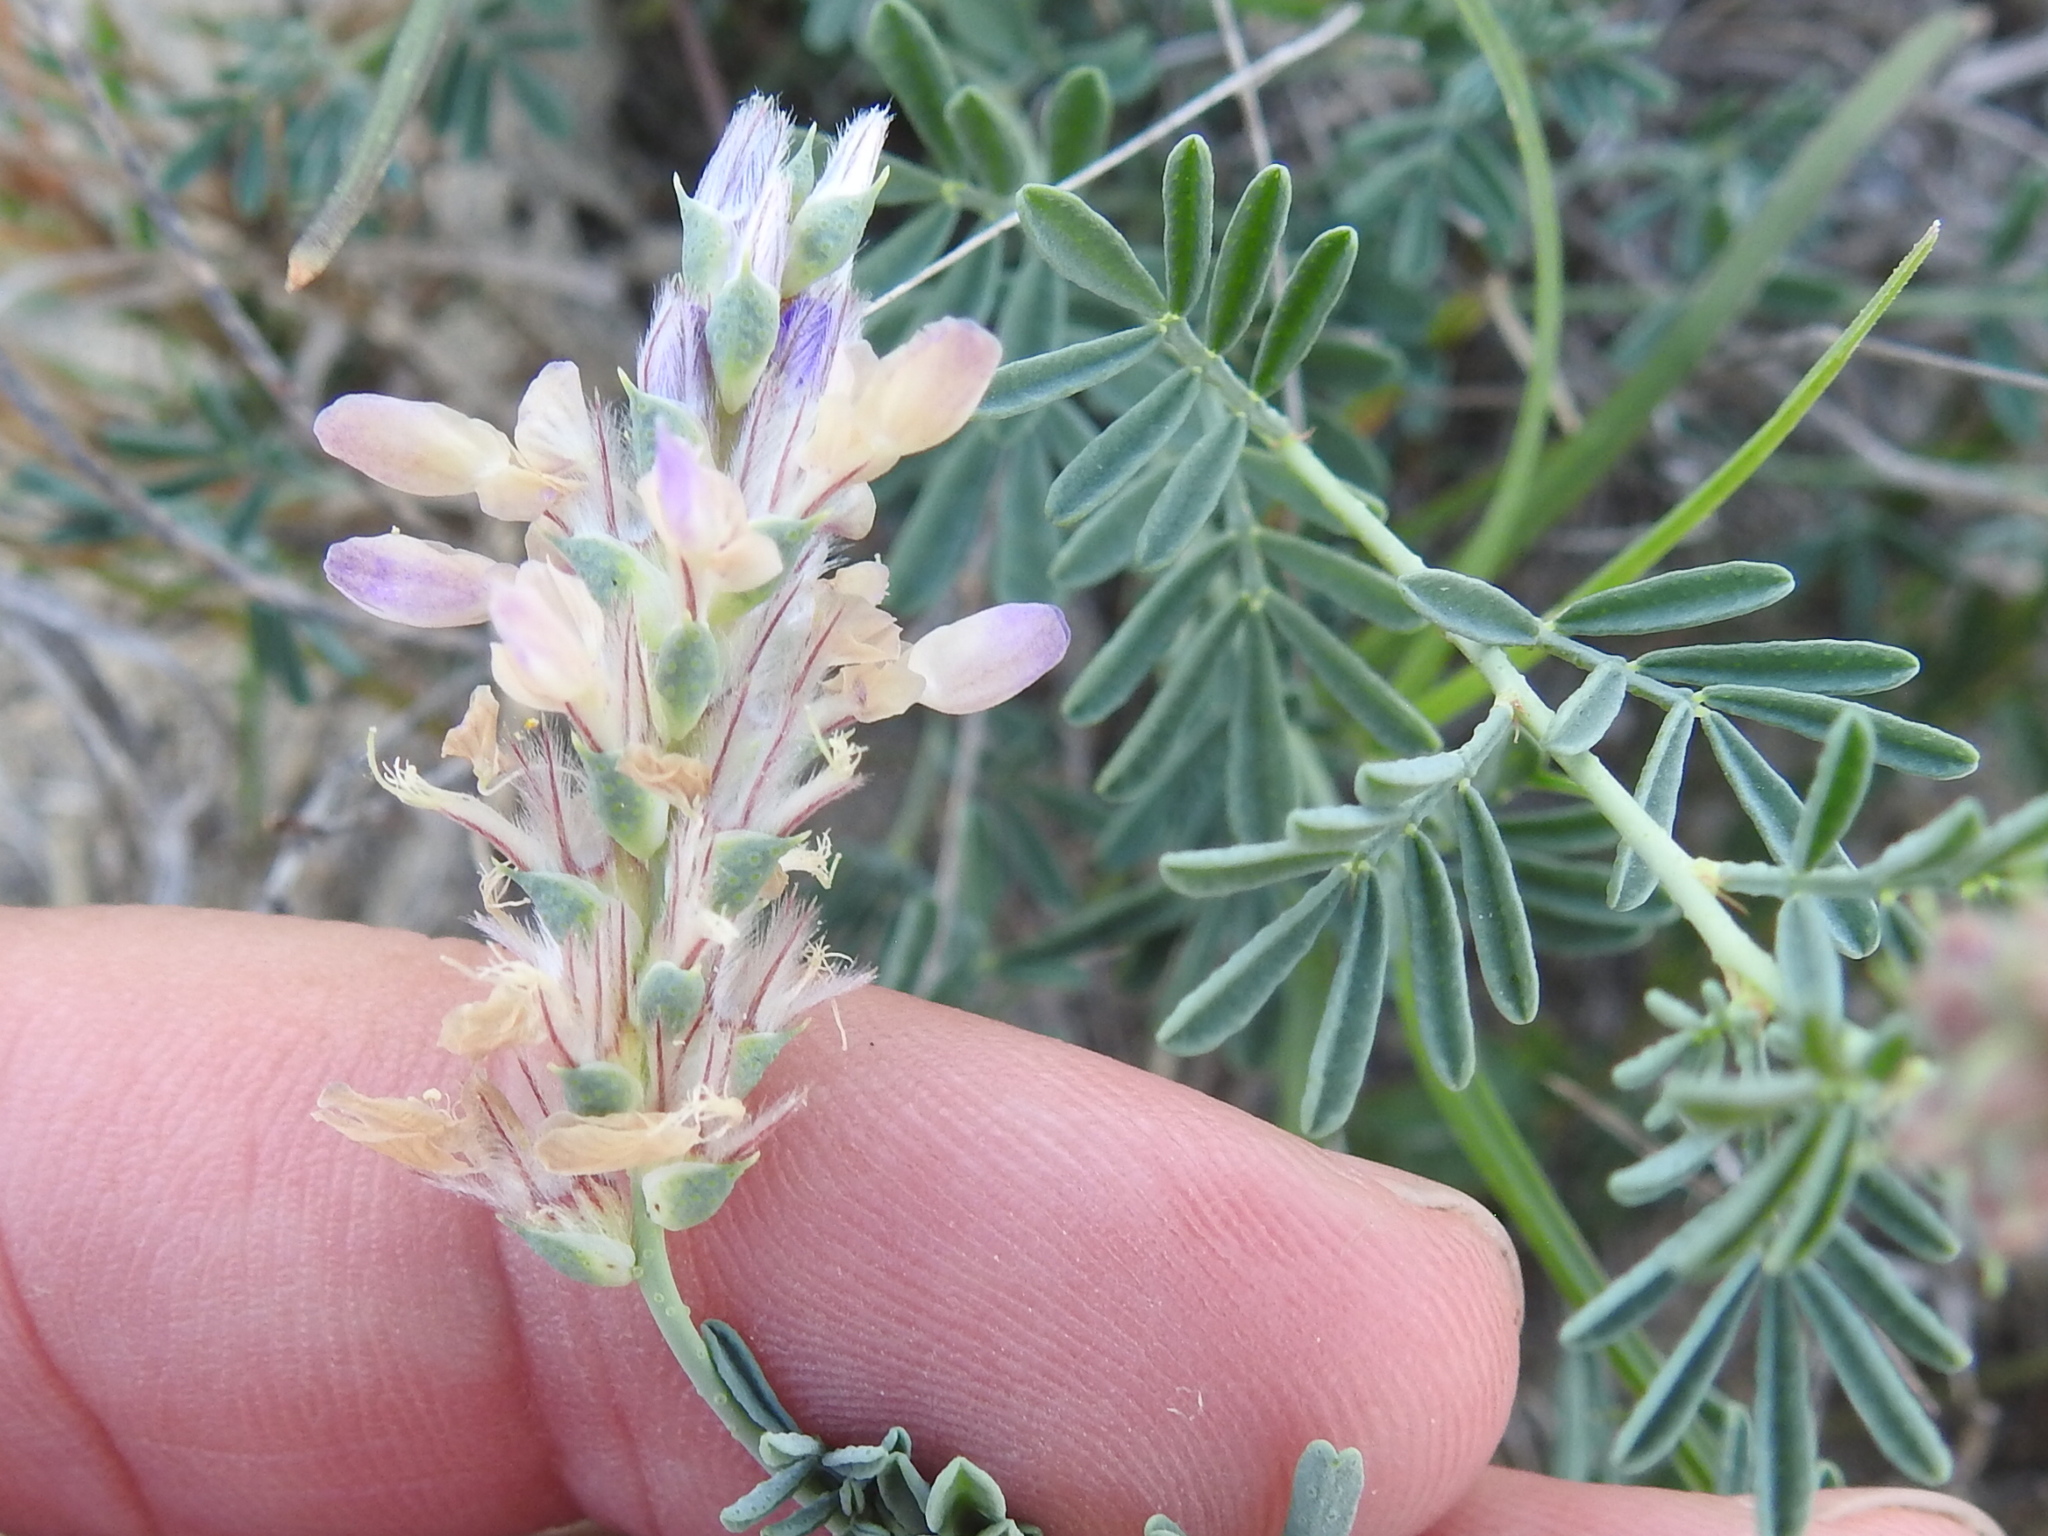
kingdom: Plantae
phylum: Tracheophyta
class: Magnoliopsida
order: Fabales
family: Fabaceae
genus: Dalea
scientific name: Dalea pogonathera
